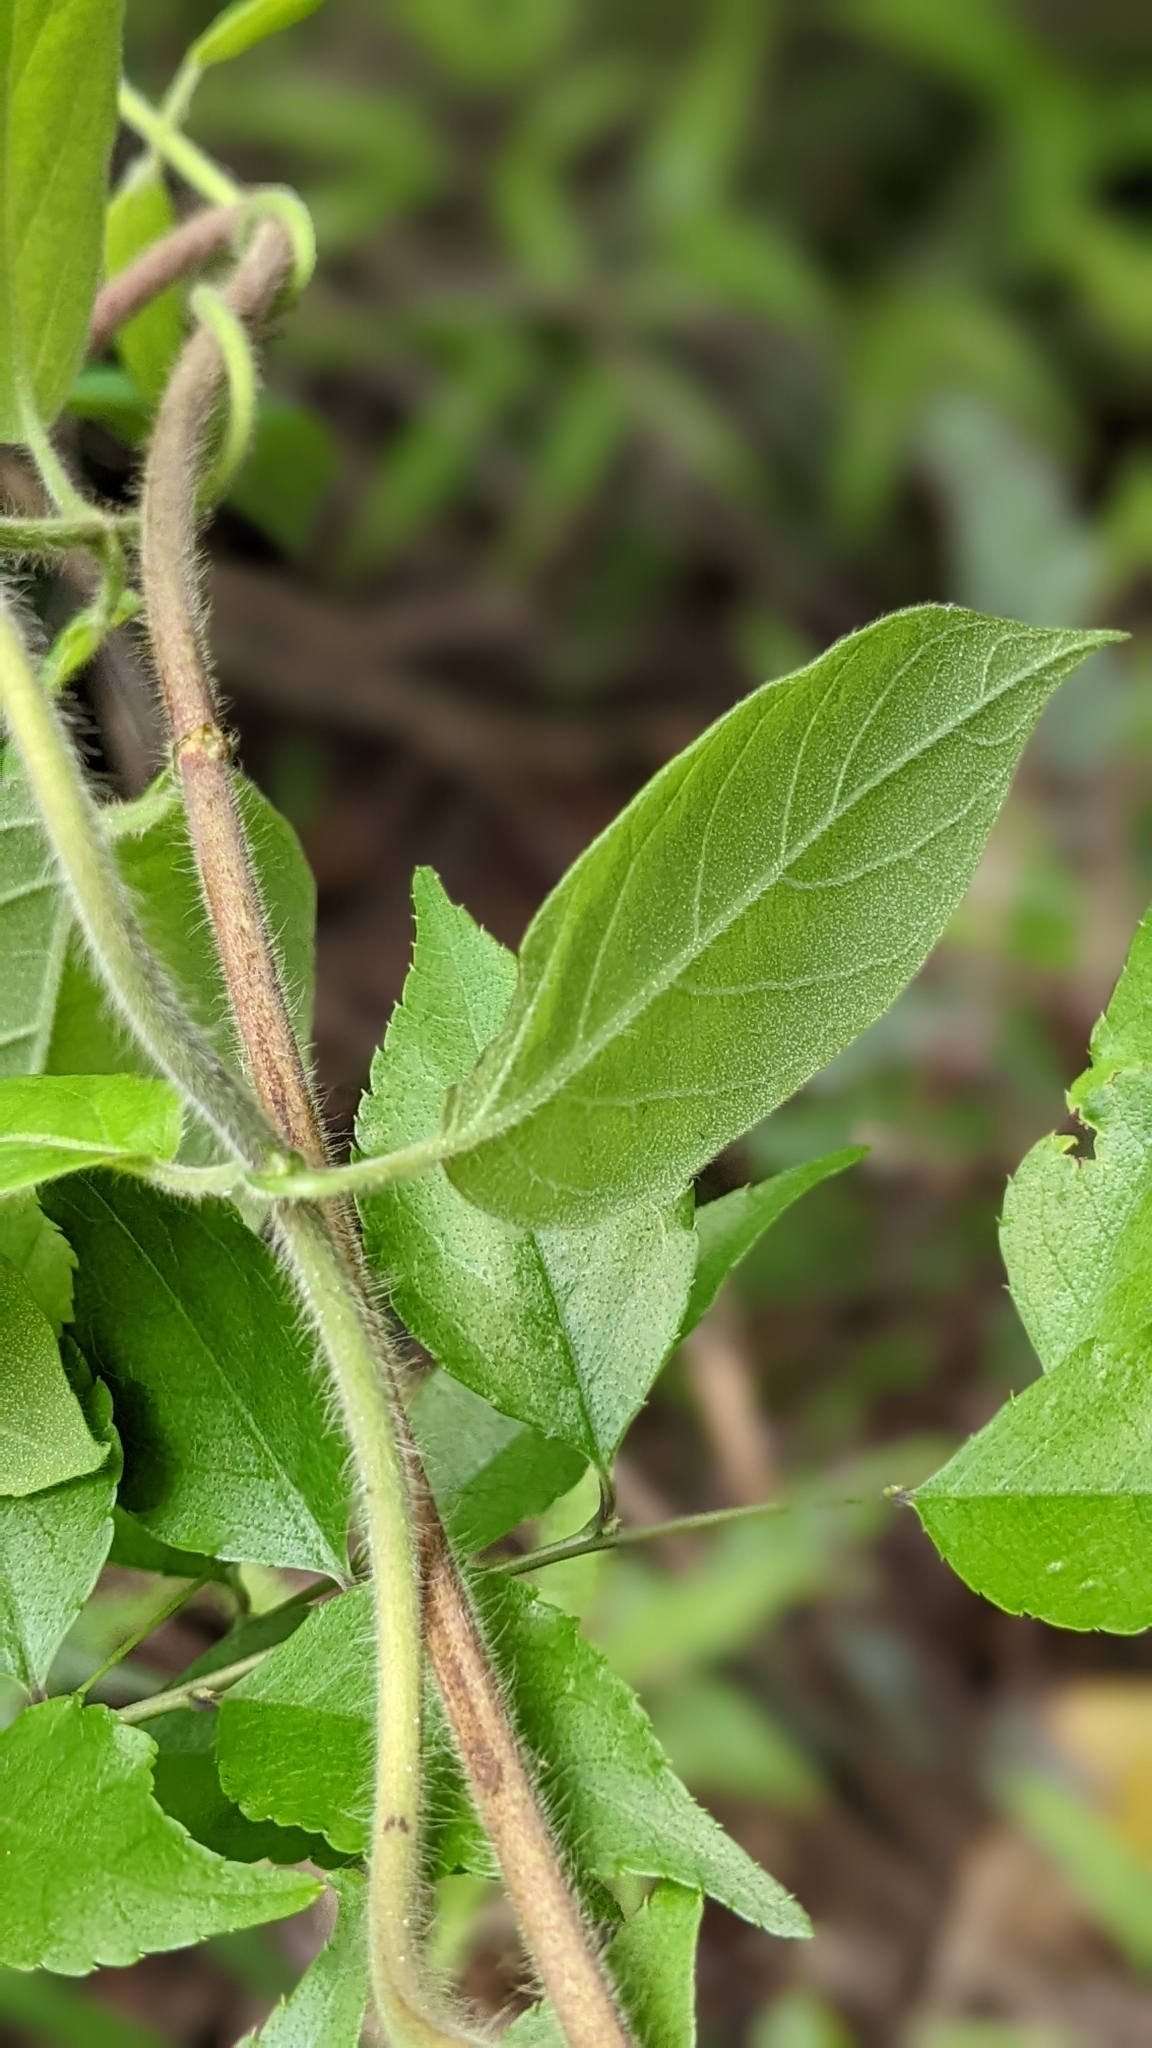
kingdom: Plantae
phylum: Tracheophyta
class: Magnoliopsida
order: Dipsacales
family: Caprifoliaceae
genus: Lonicera
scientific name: Lonicera hypoglauca
